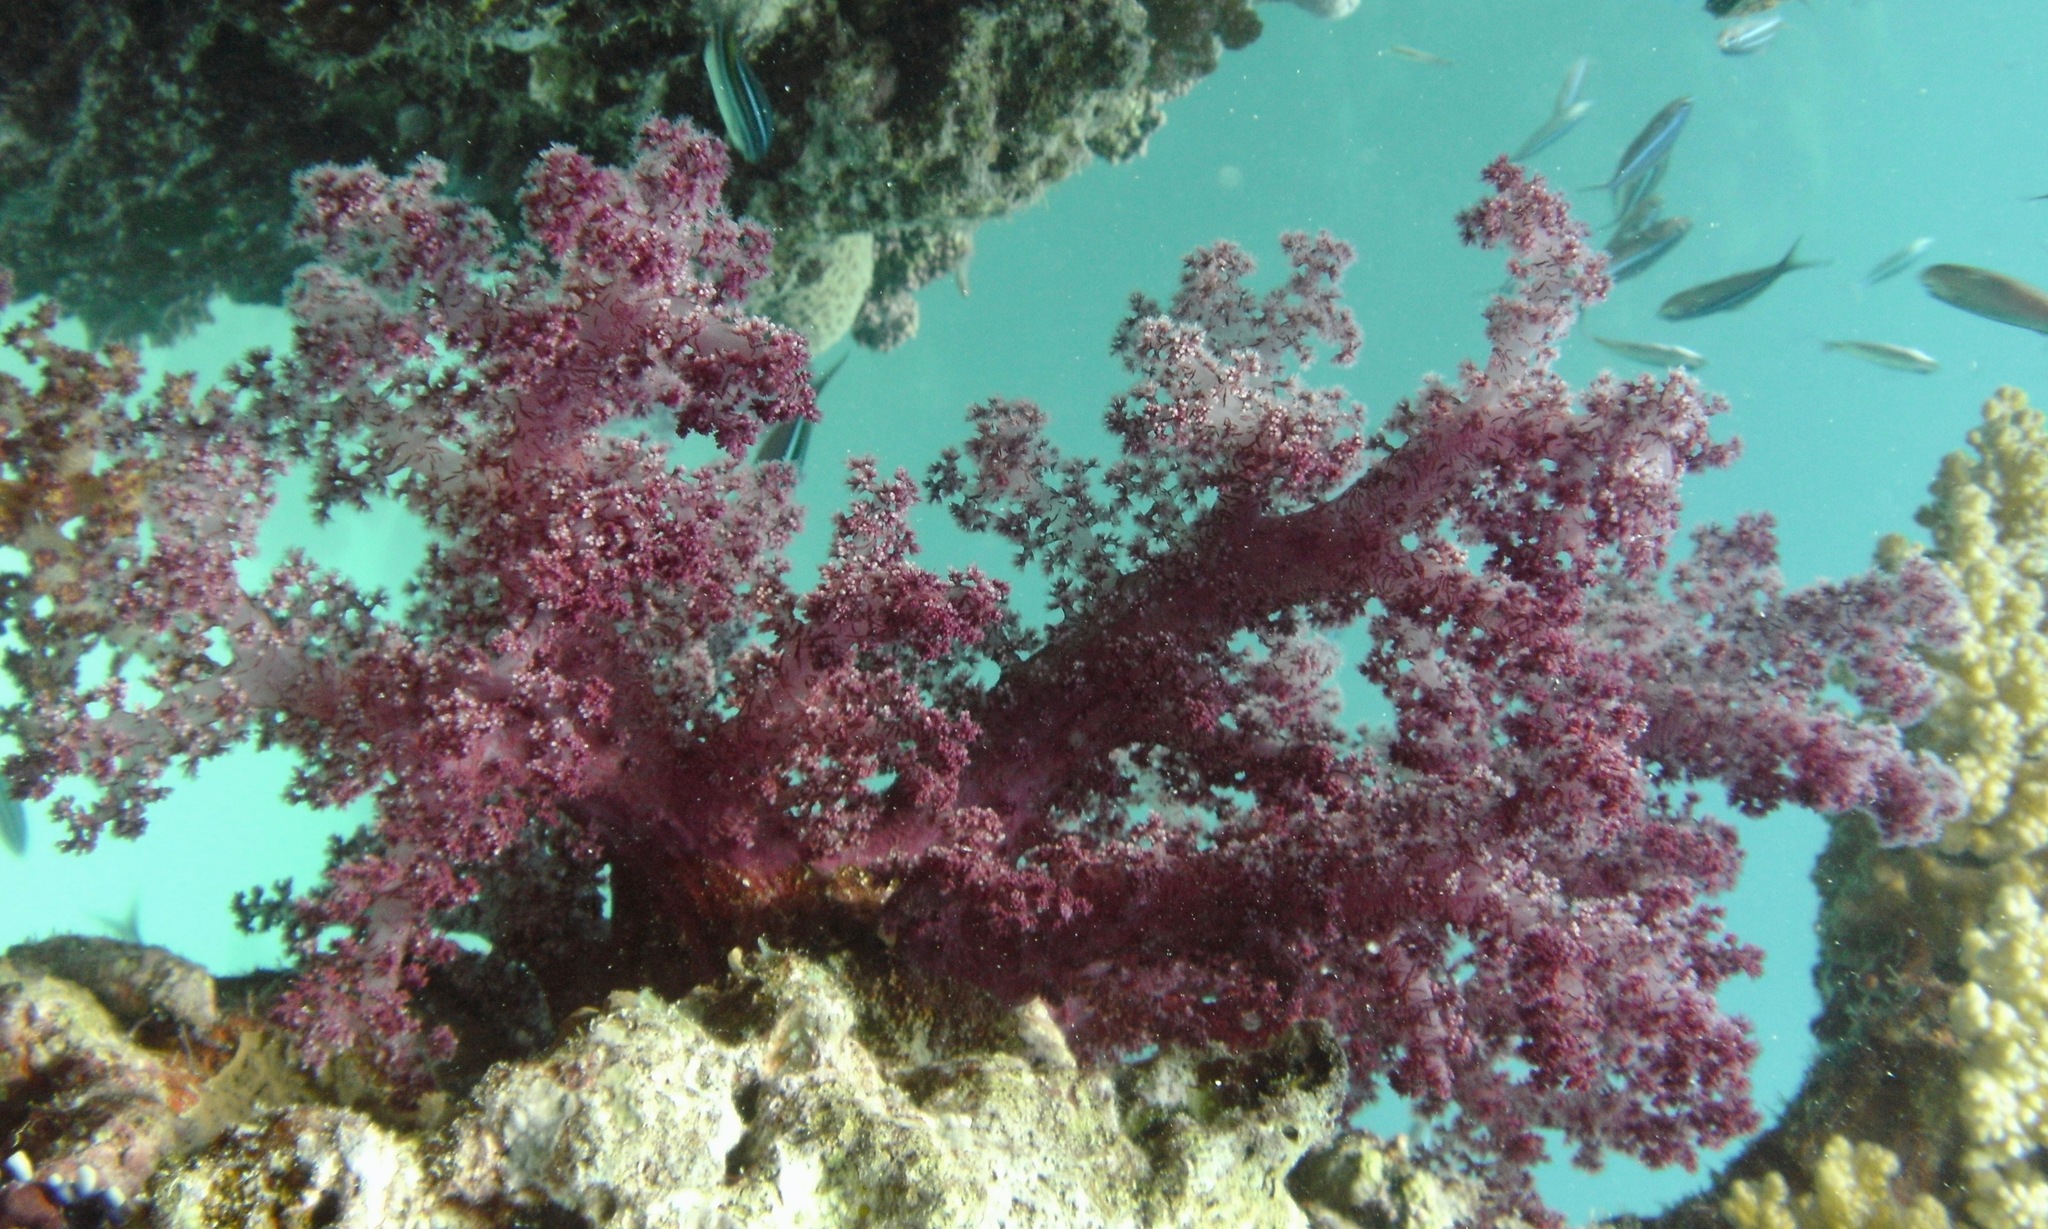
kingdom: Animalia
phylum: Cnidaria
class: Anthozoa
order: Malacalcyonacea
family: Nephtheidae
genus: Dendronephthya
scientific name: Dendronephthya hemprichi
